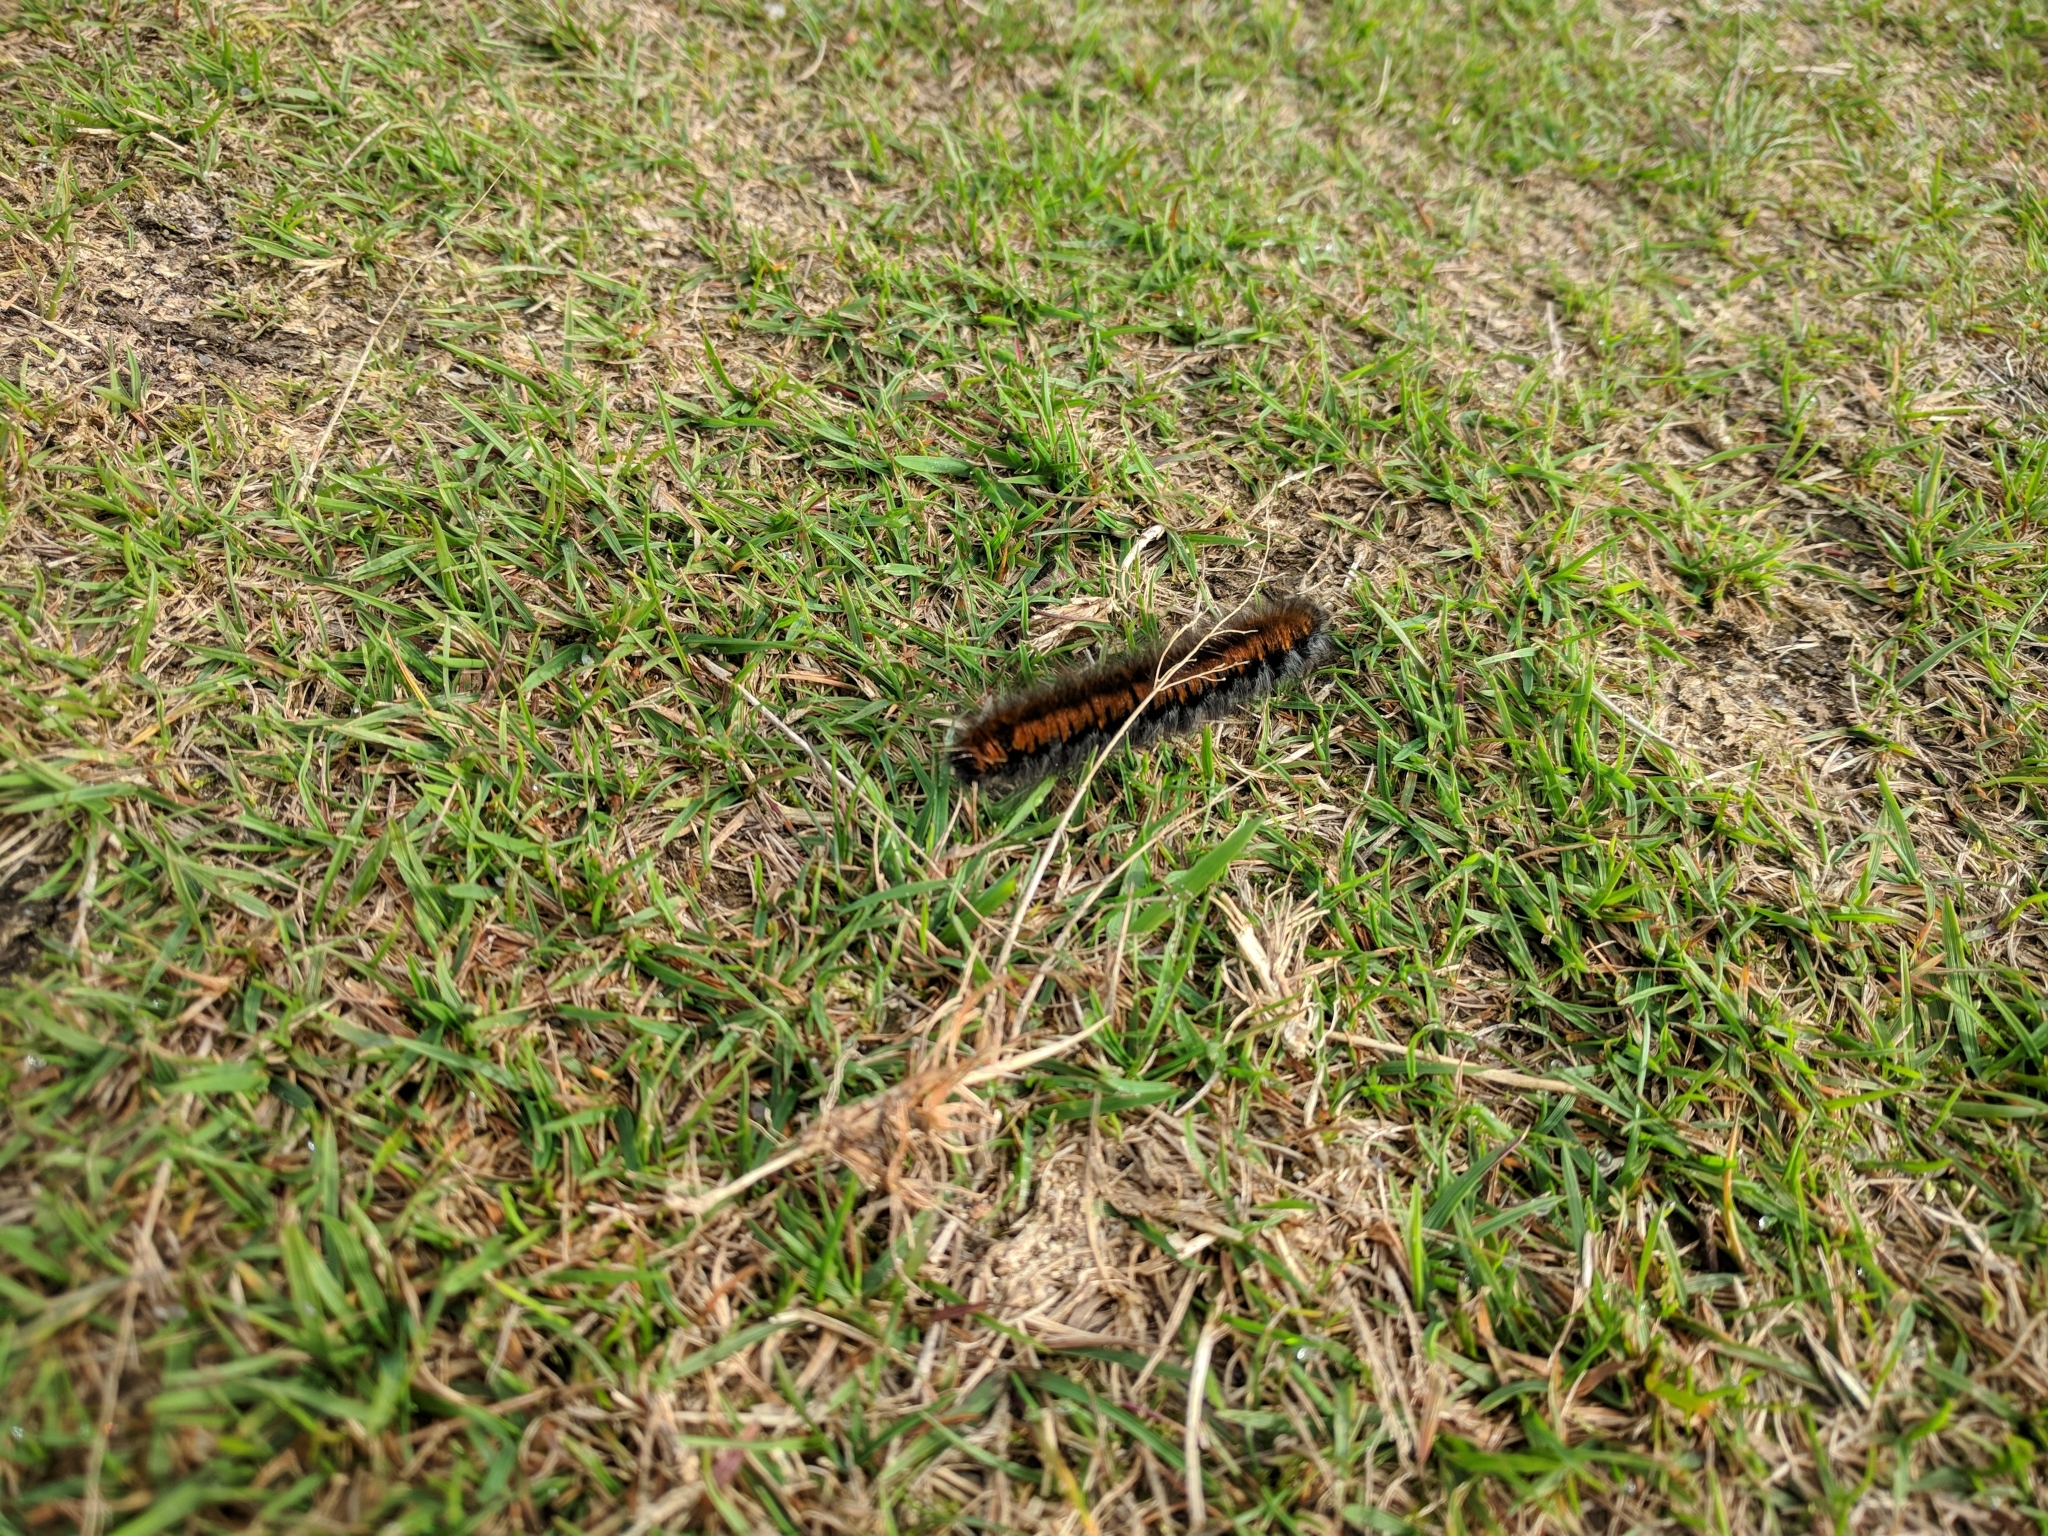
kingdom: Animalia
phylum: Arthropoda
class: Insecta
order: Lepidoptera
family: Lasiocampidae
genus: Macrothylacia
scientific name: Macrothylacia rubi
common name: Fox moth
